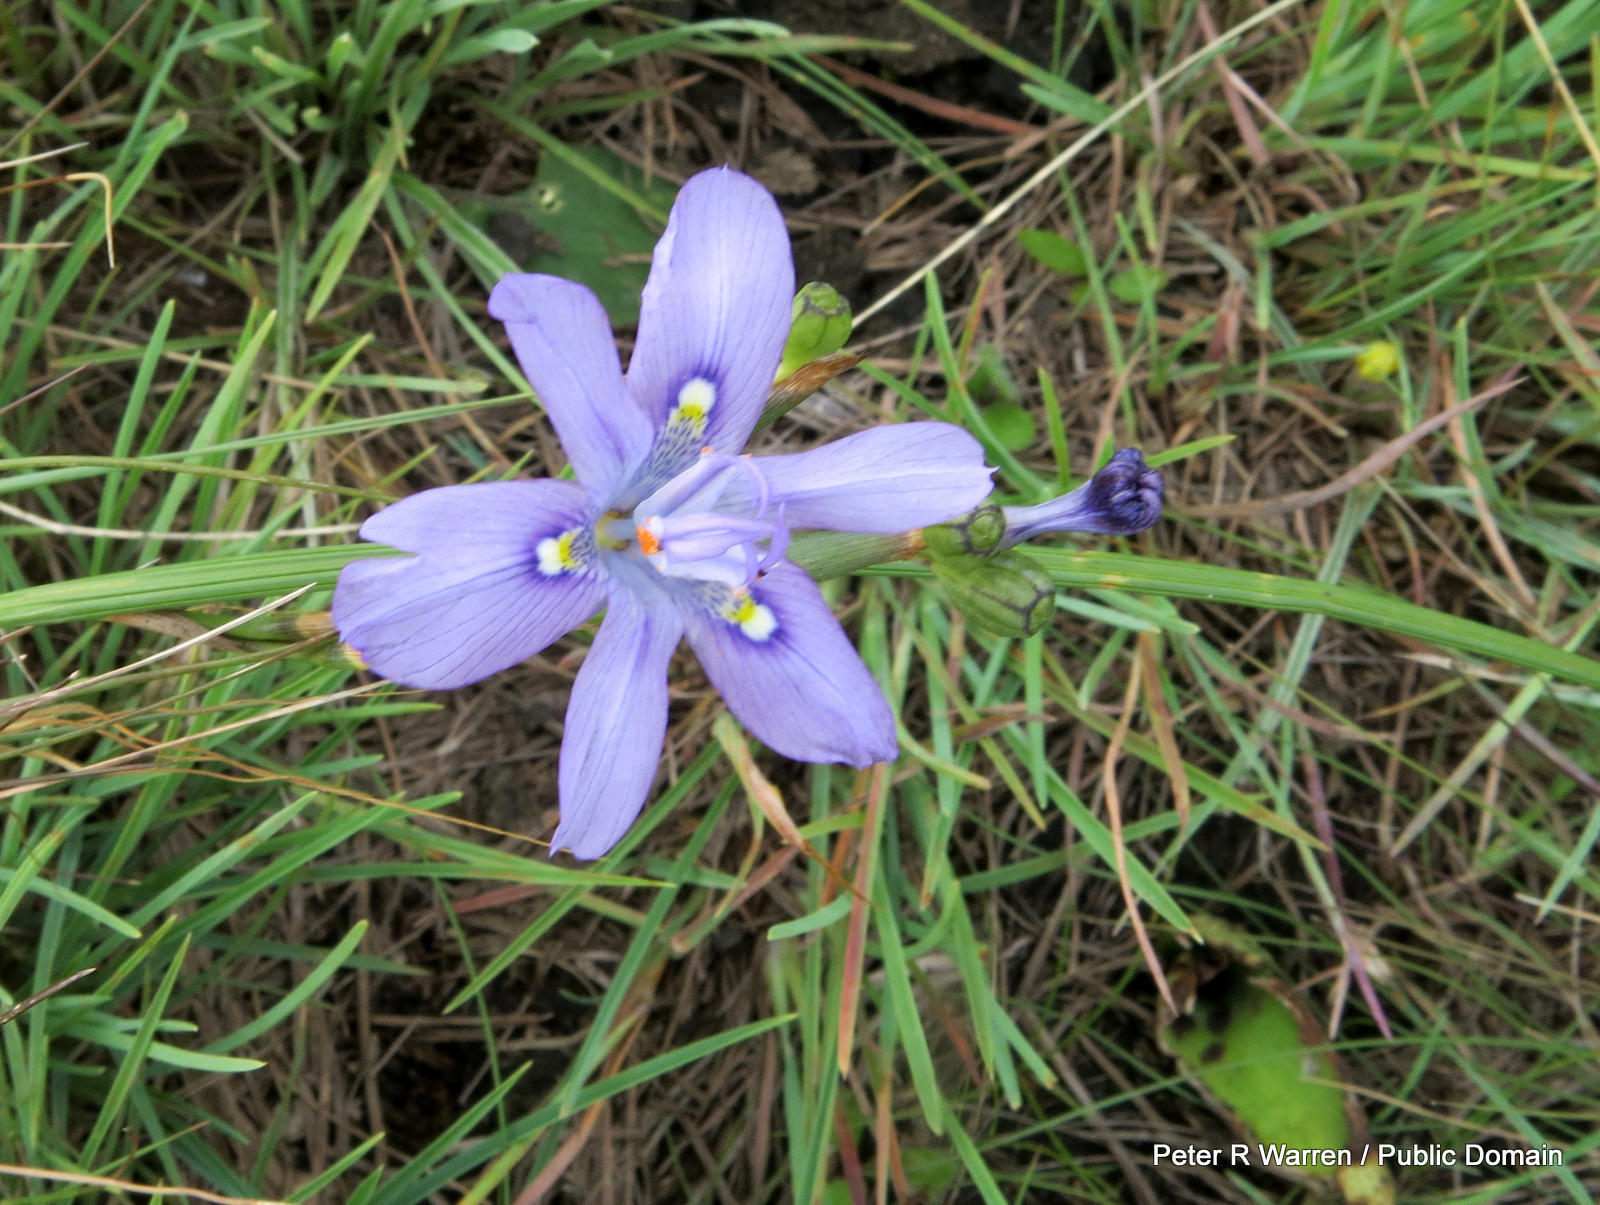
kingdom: Plantae
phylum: Tracheophyta
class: Liliopsida
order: Asparagales
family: Iridaceae
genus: Moraea
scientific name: Moraea inclinata
